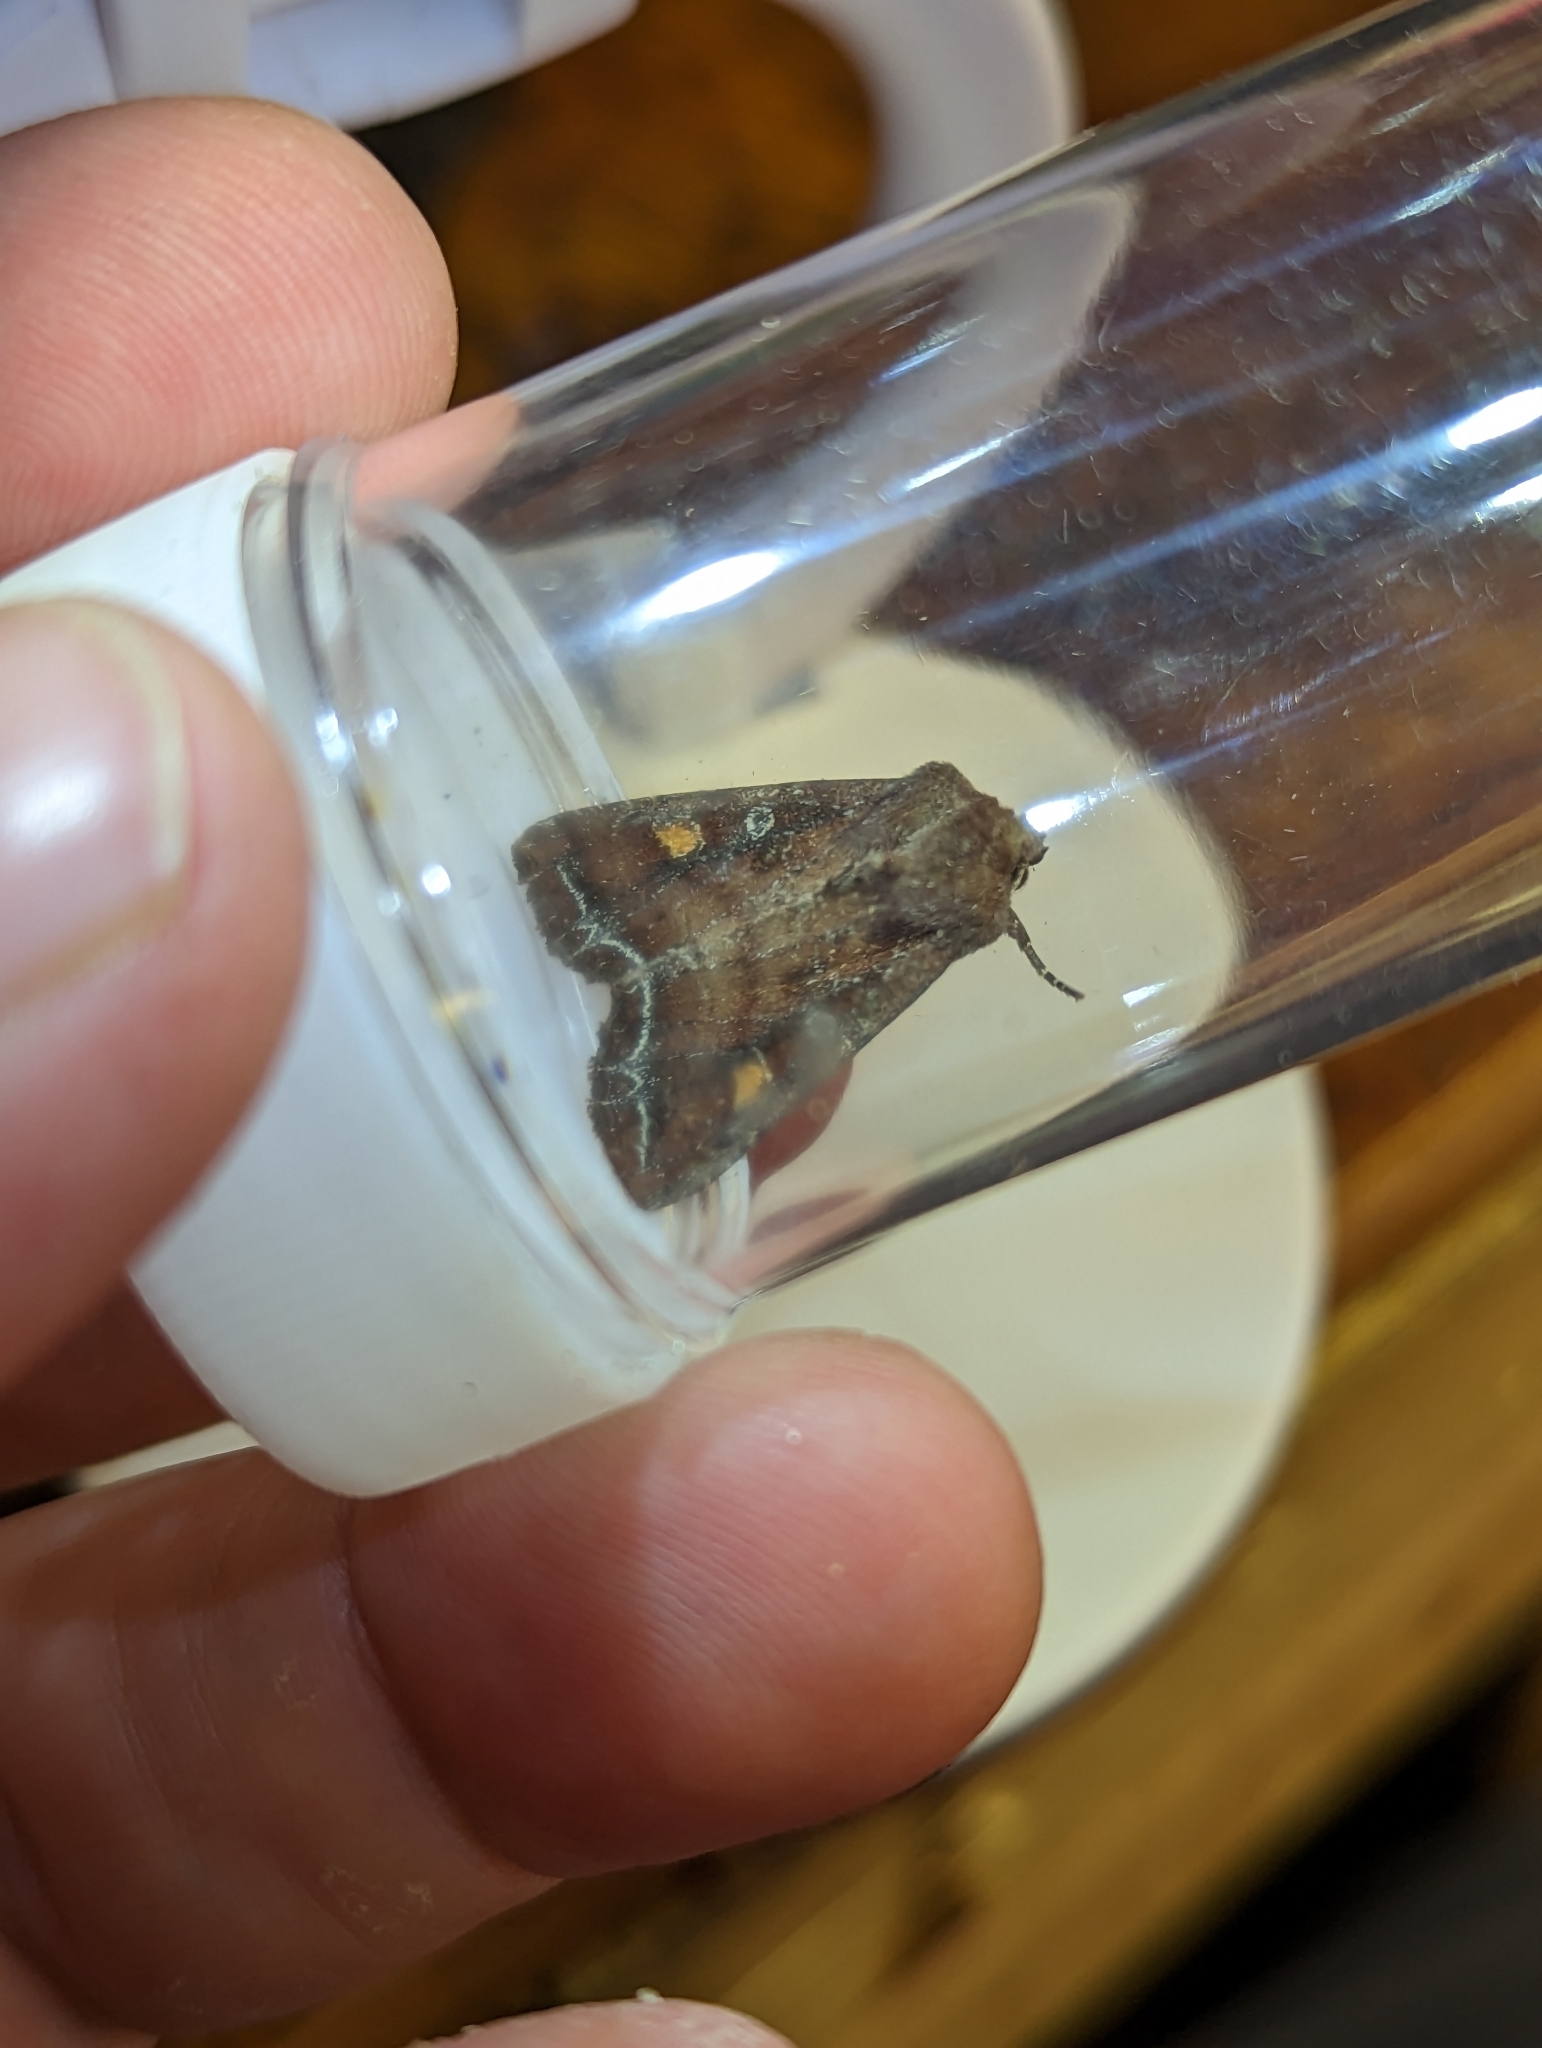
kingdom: Animalia
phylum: Arthropoda
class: Insecta
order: Lepidoptera
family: Noctuidae
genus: Lacanobia
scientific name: Lacanobia oleracea
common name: Bright-line brown-eye
